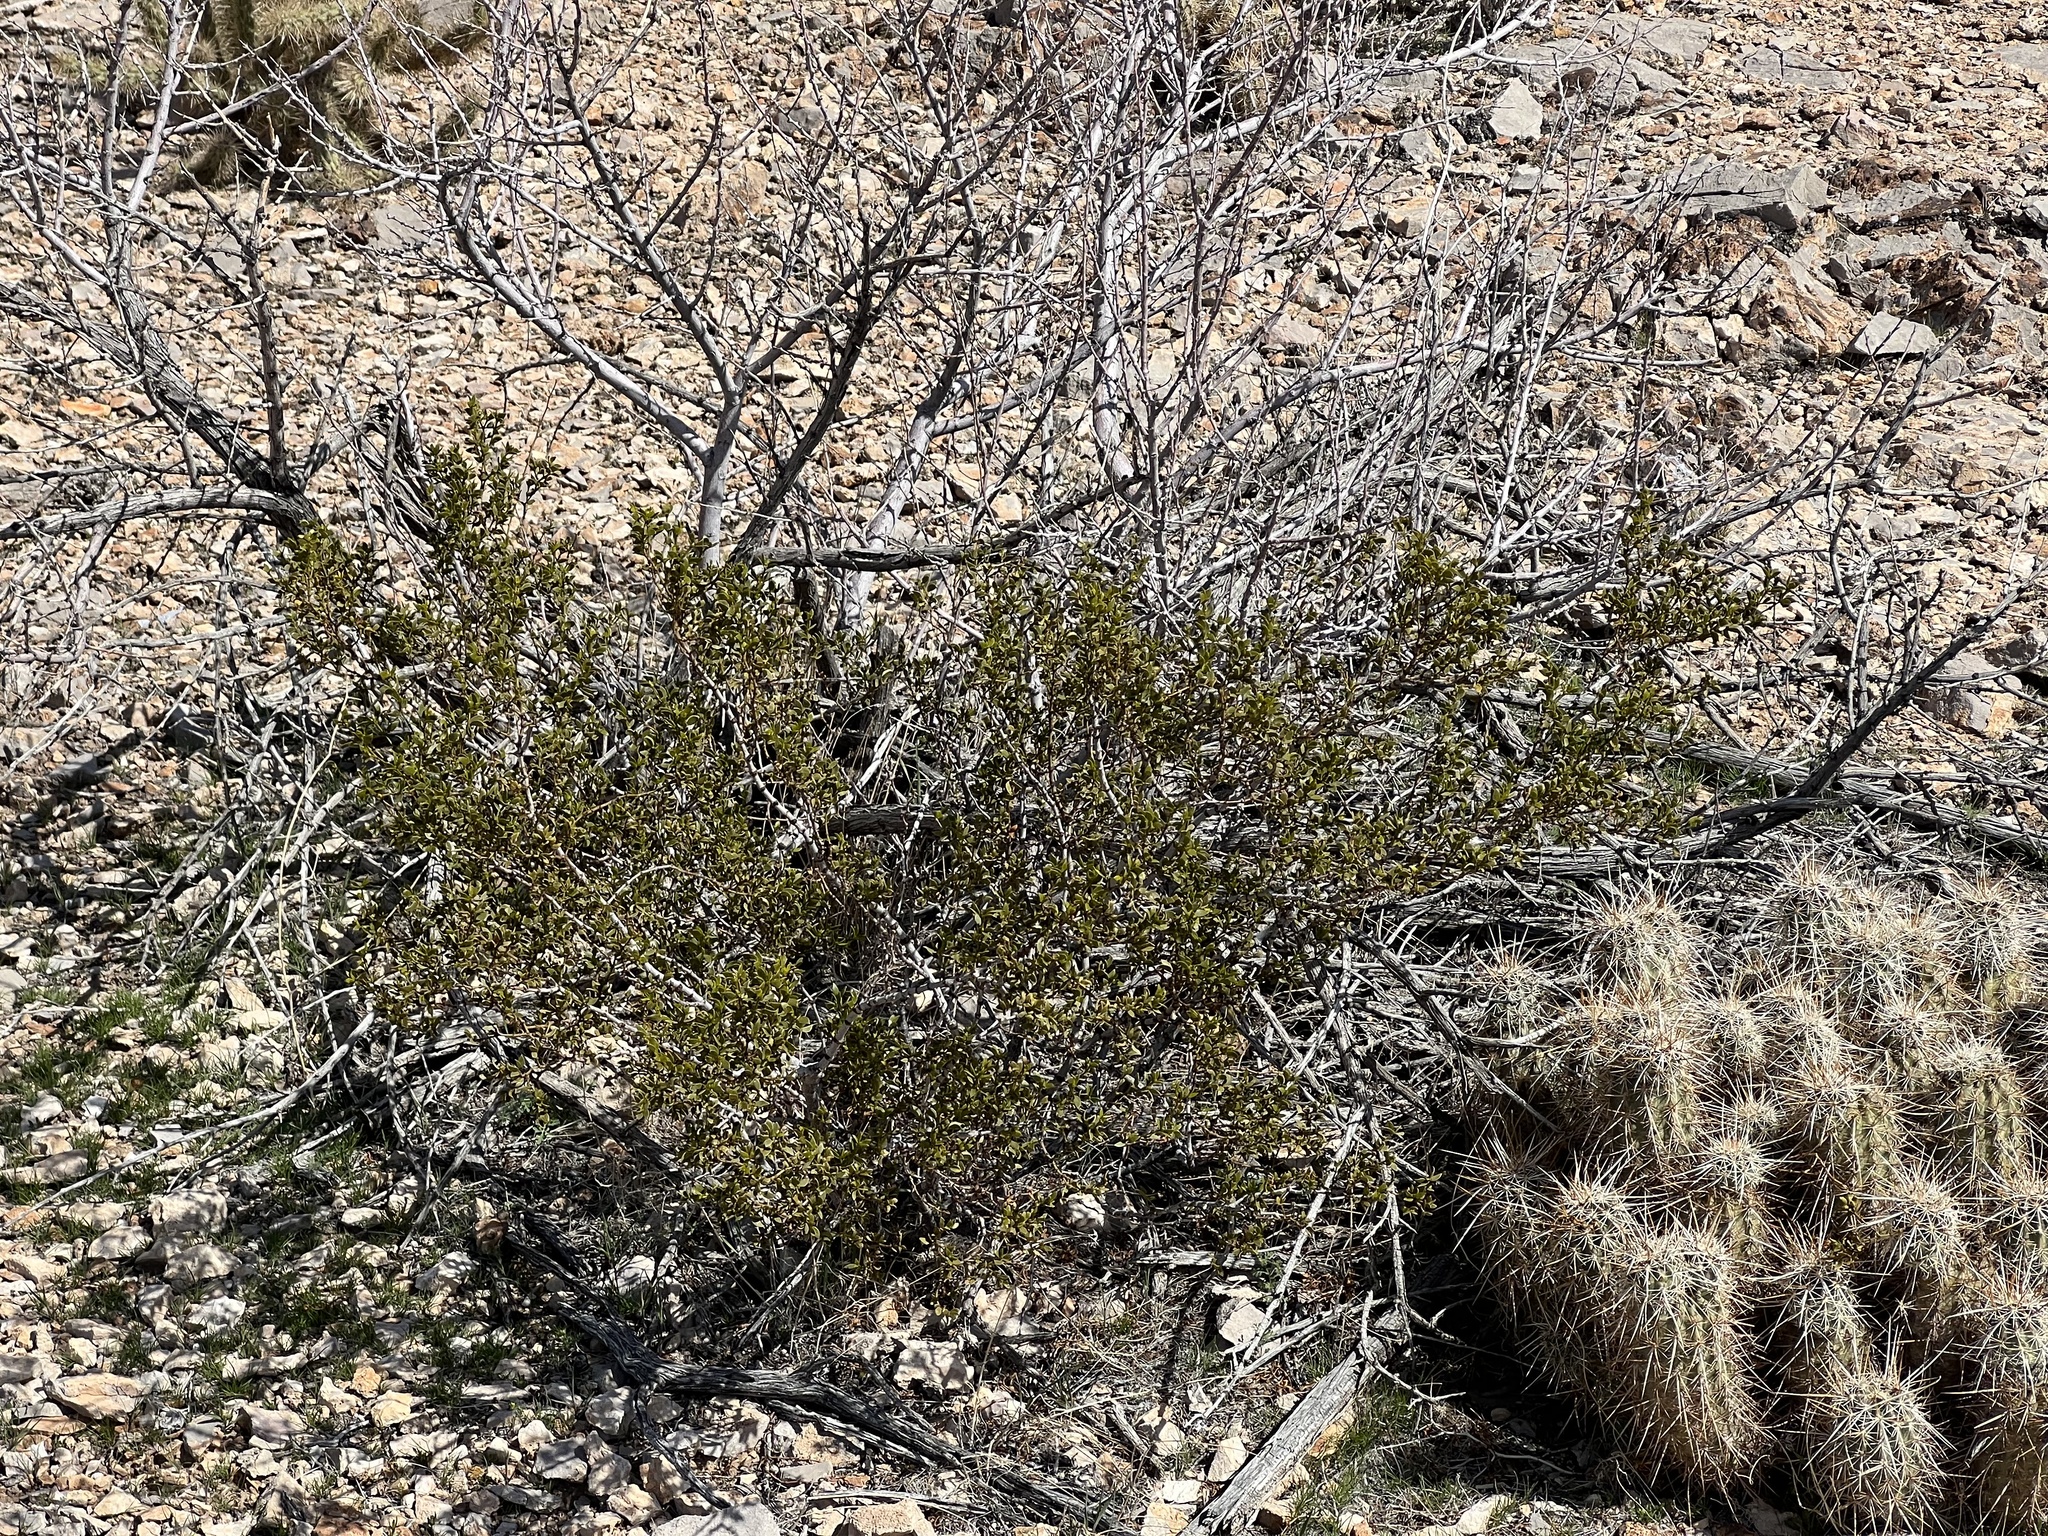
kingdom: Plantae
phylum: Tracheophyta
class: Magnoliopsida
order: Zygophyllales
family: Zygophyllaceae
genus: Larrea
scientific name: Larrea tridentata
